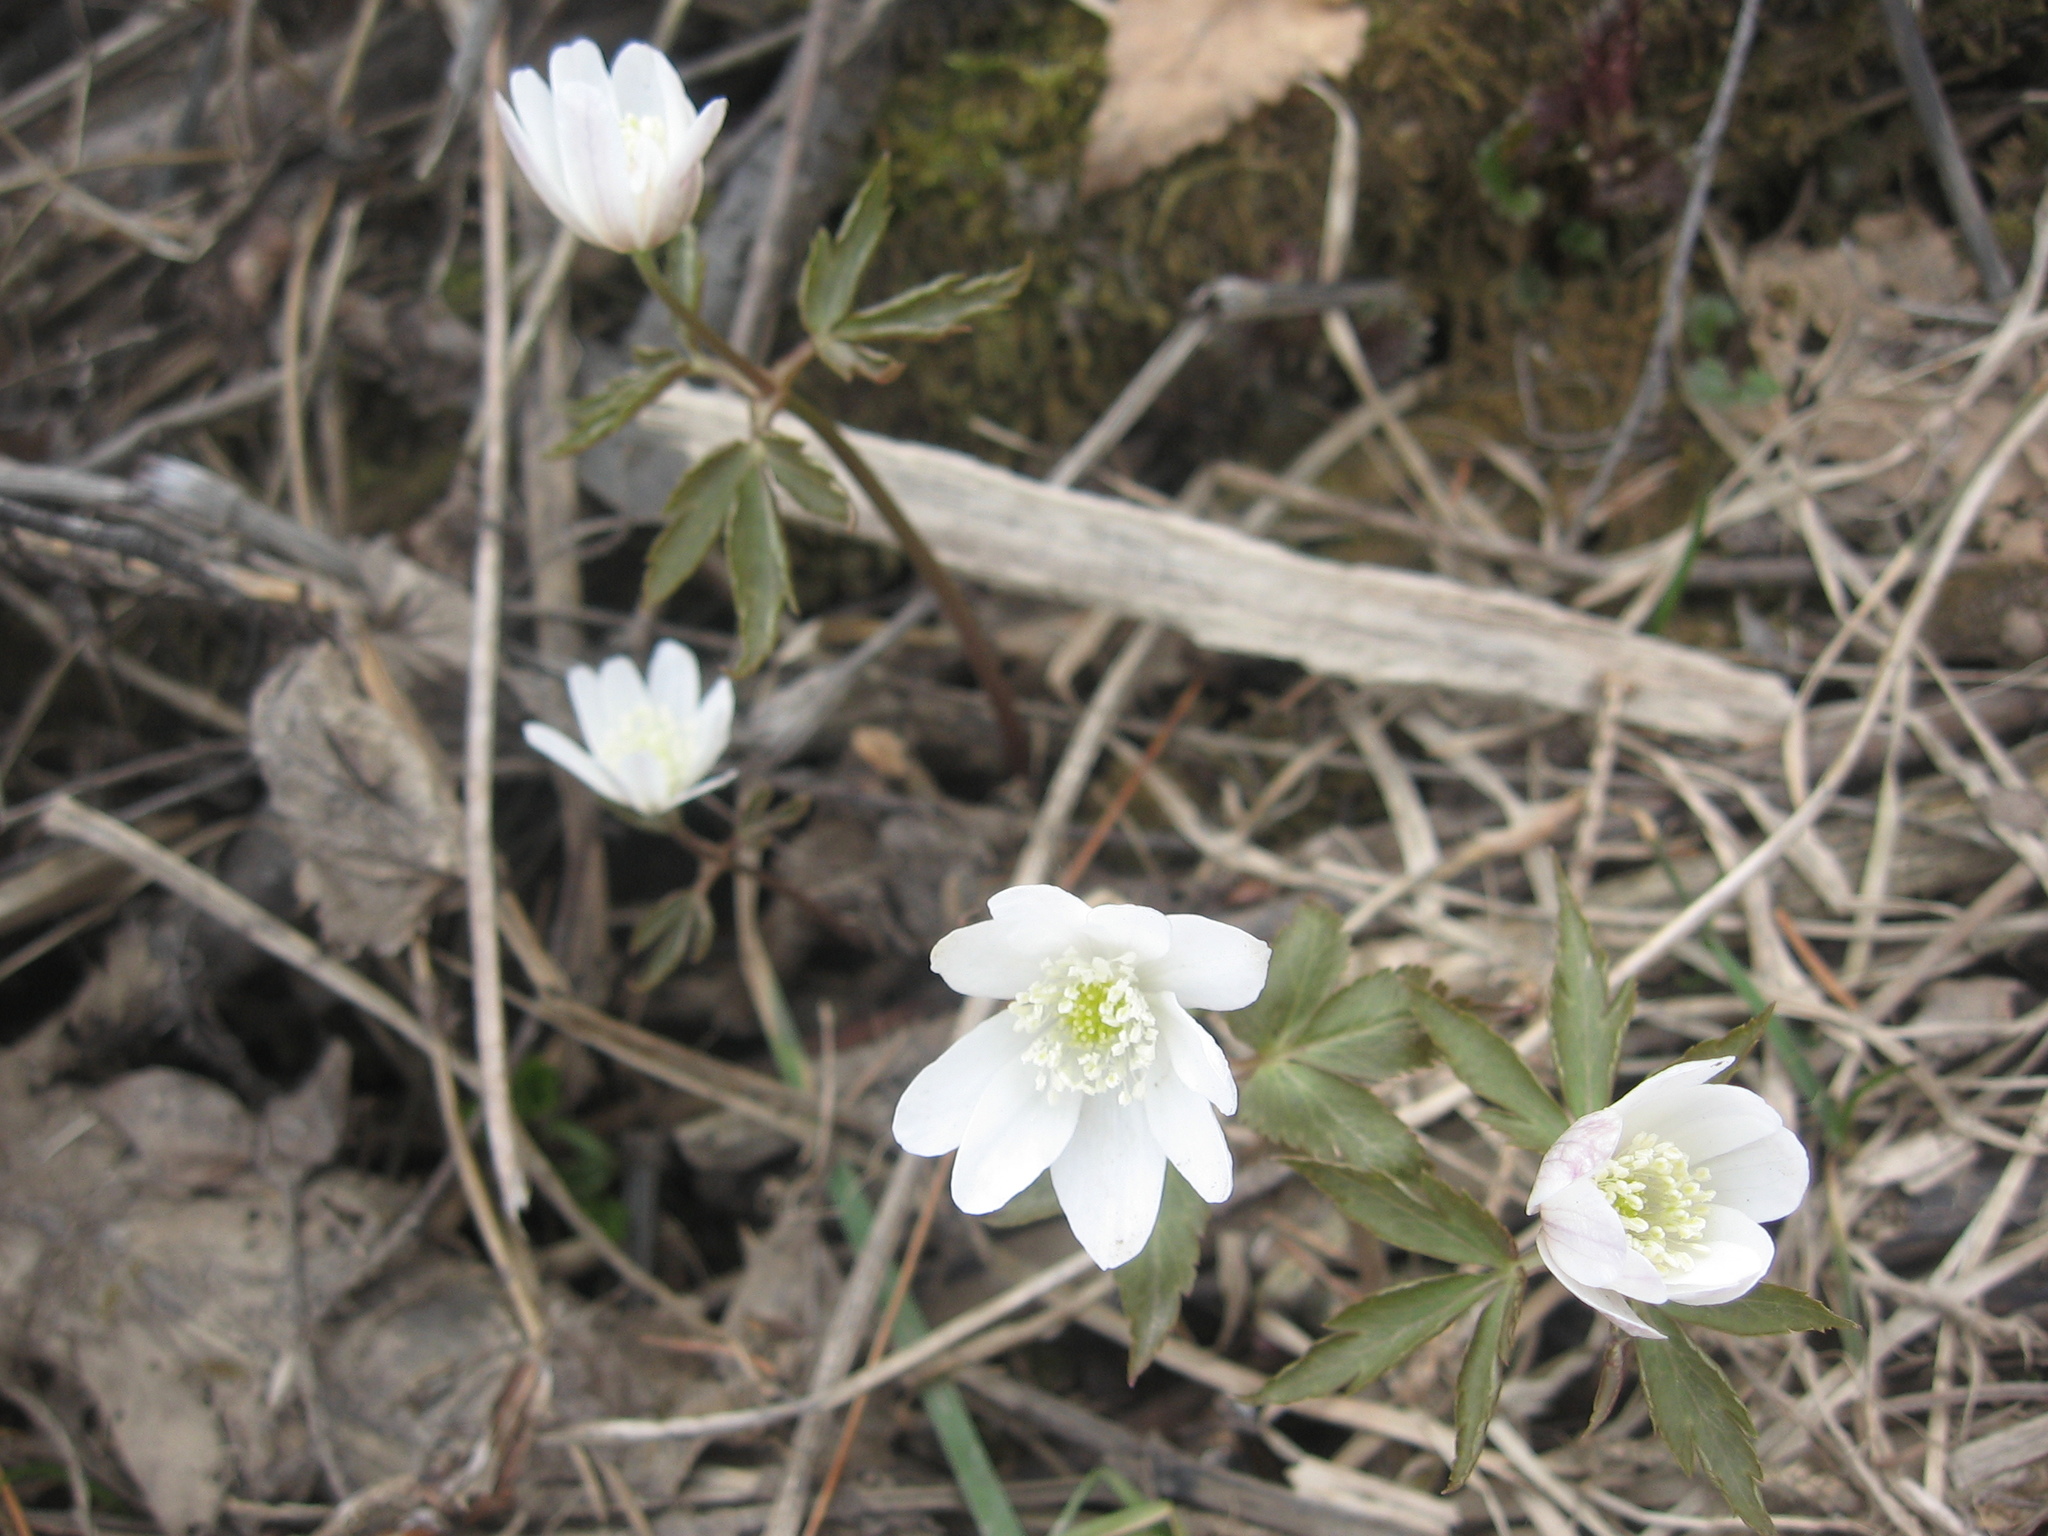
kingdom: Plantae
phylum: Tracheophyta
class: Magnoliopsida
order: Ranunculales
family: Ranunculaceae
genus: Anemone
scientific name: Anemone altaica
